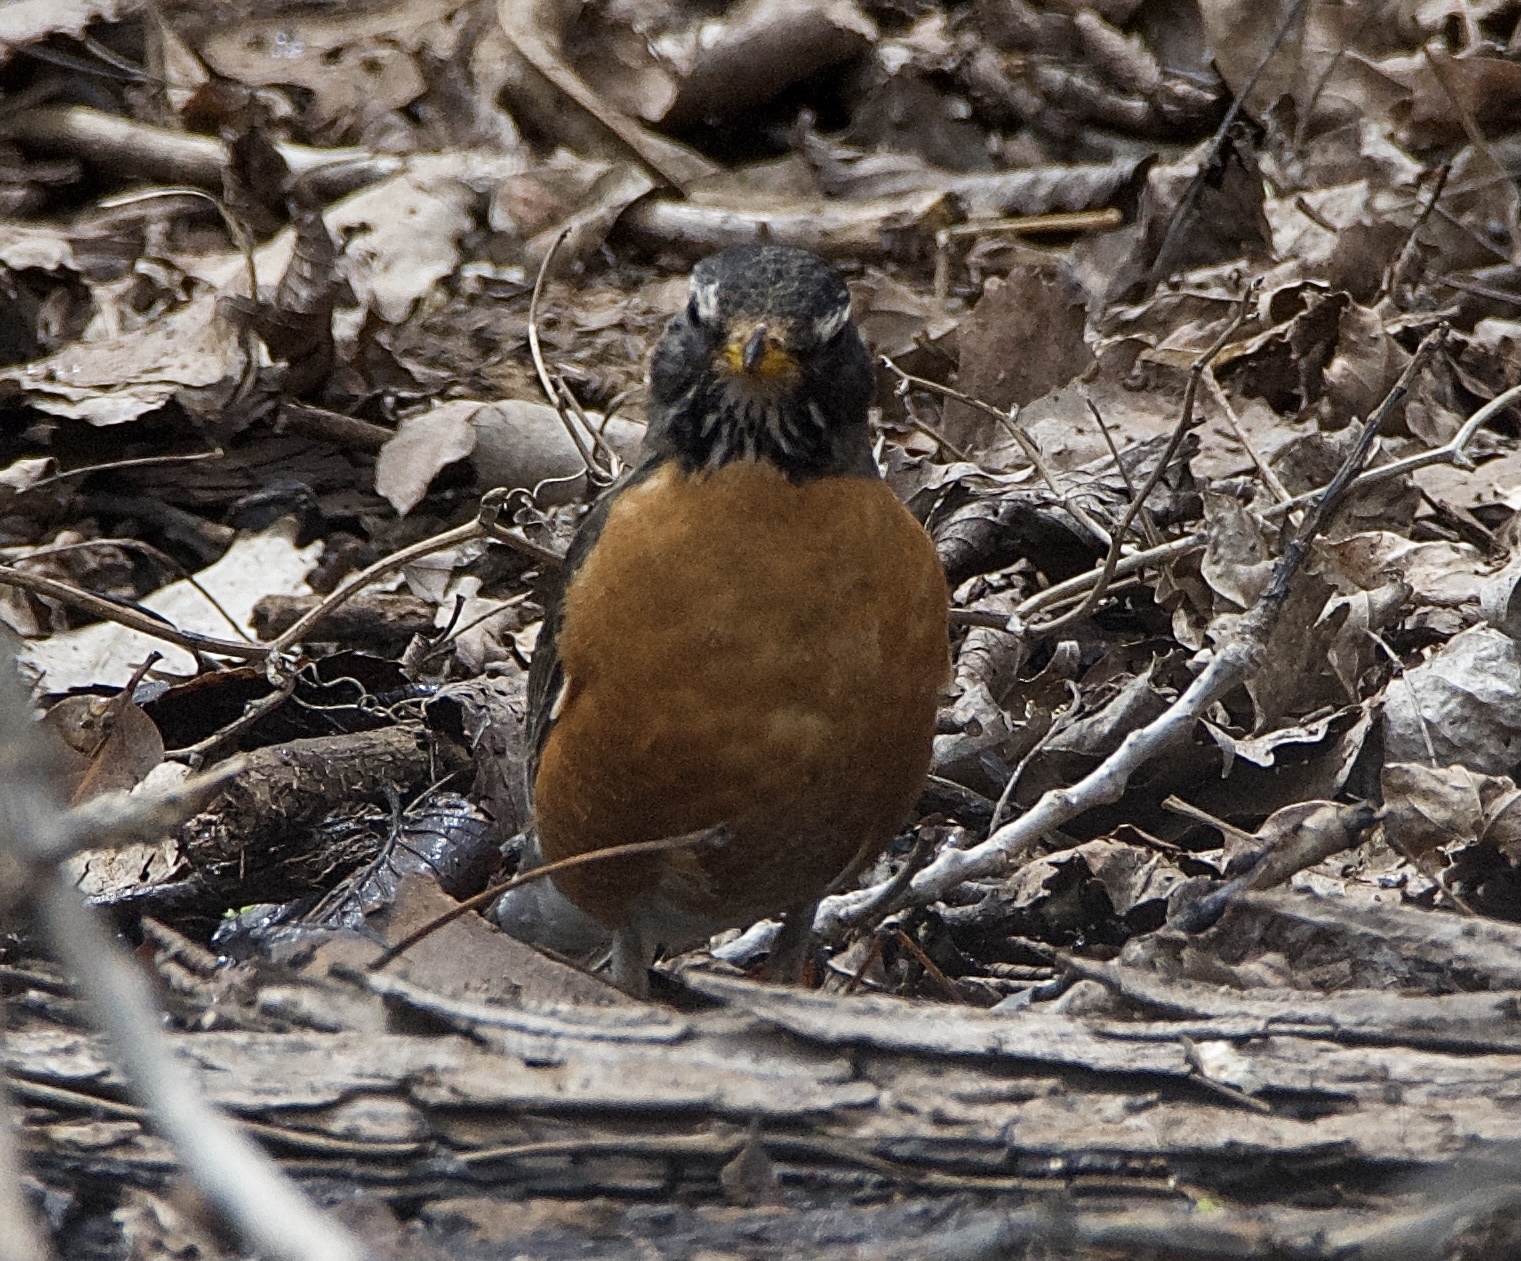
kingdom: Animalia
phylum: Chordata
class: Aves
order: Passeriformes
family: Turdidae
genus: Turdus
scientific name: Turdus migratorius
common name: American robin
